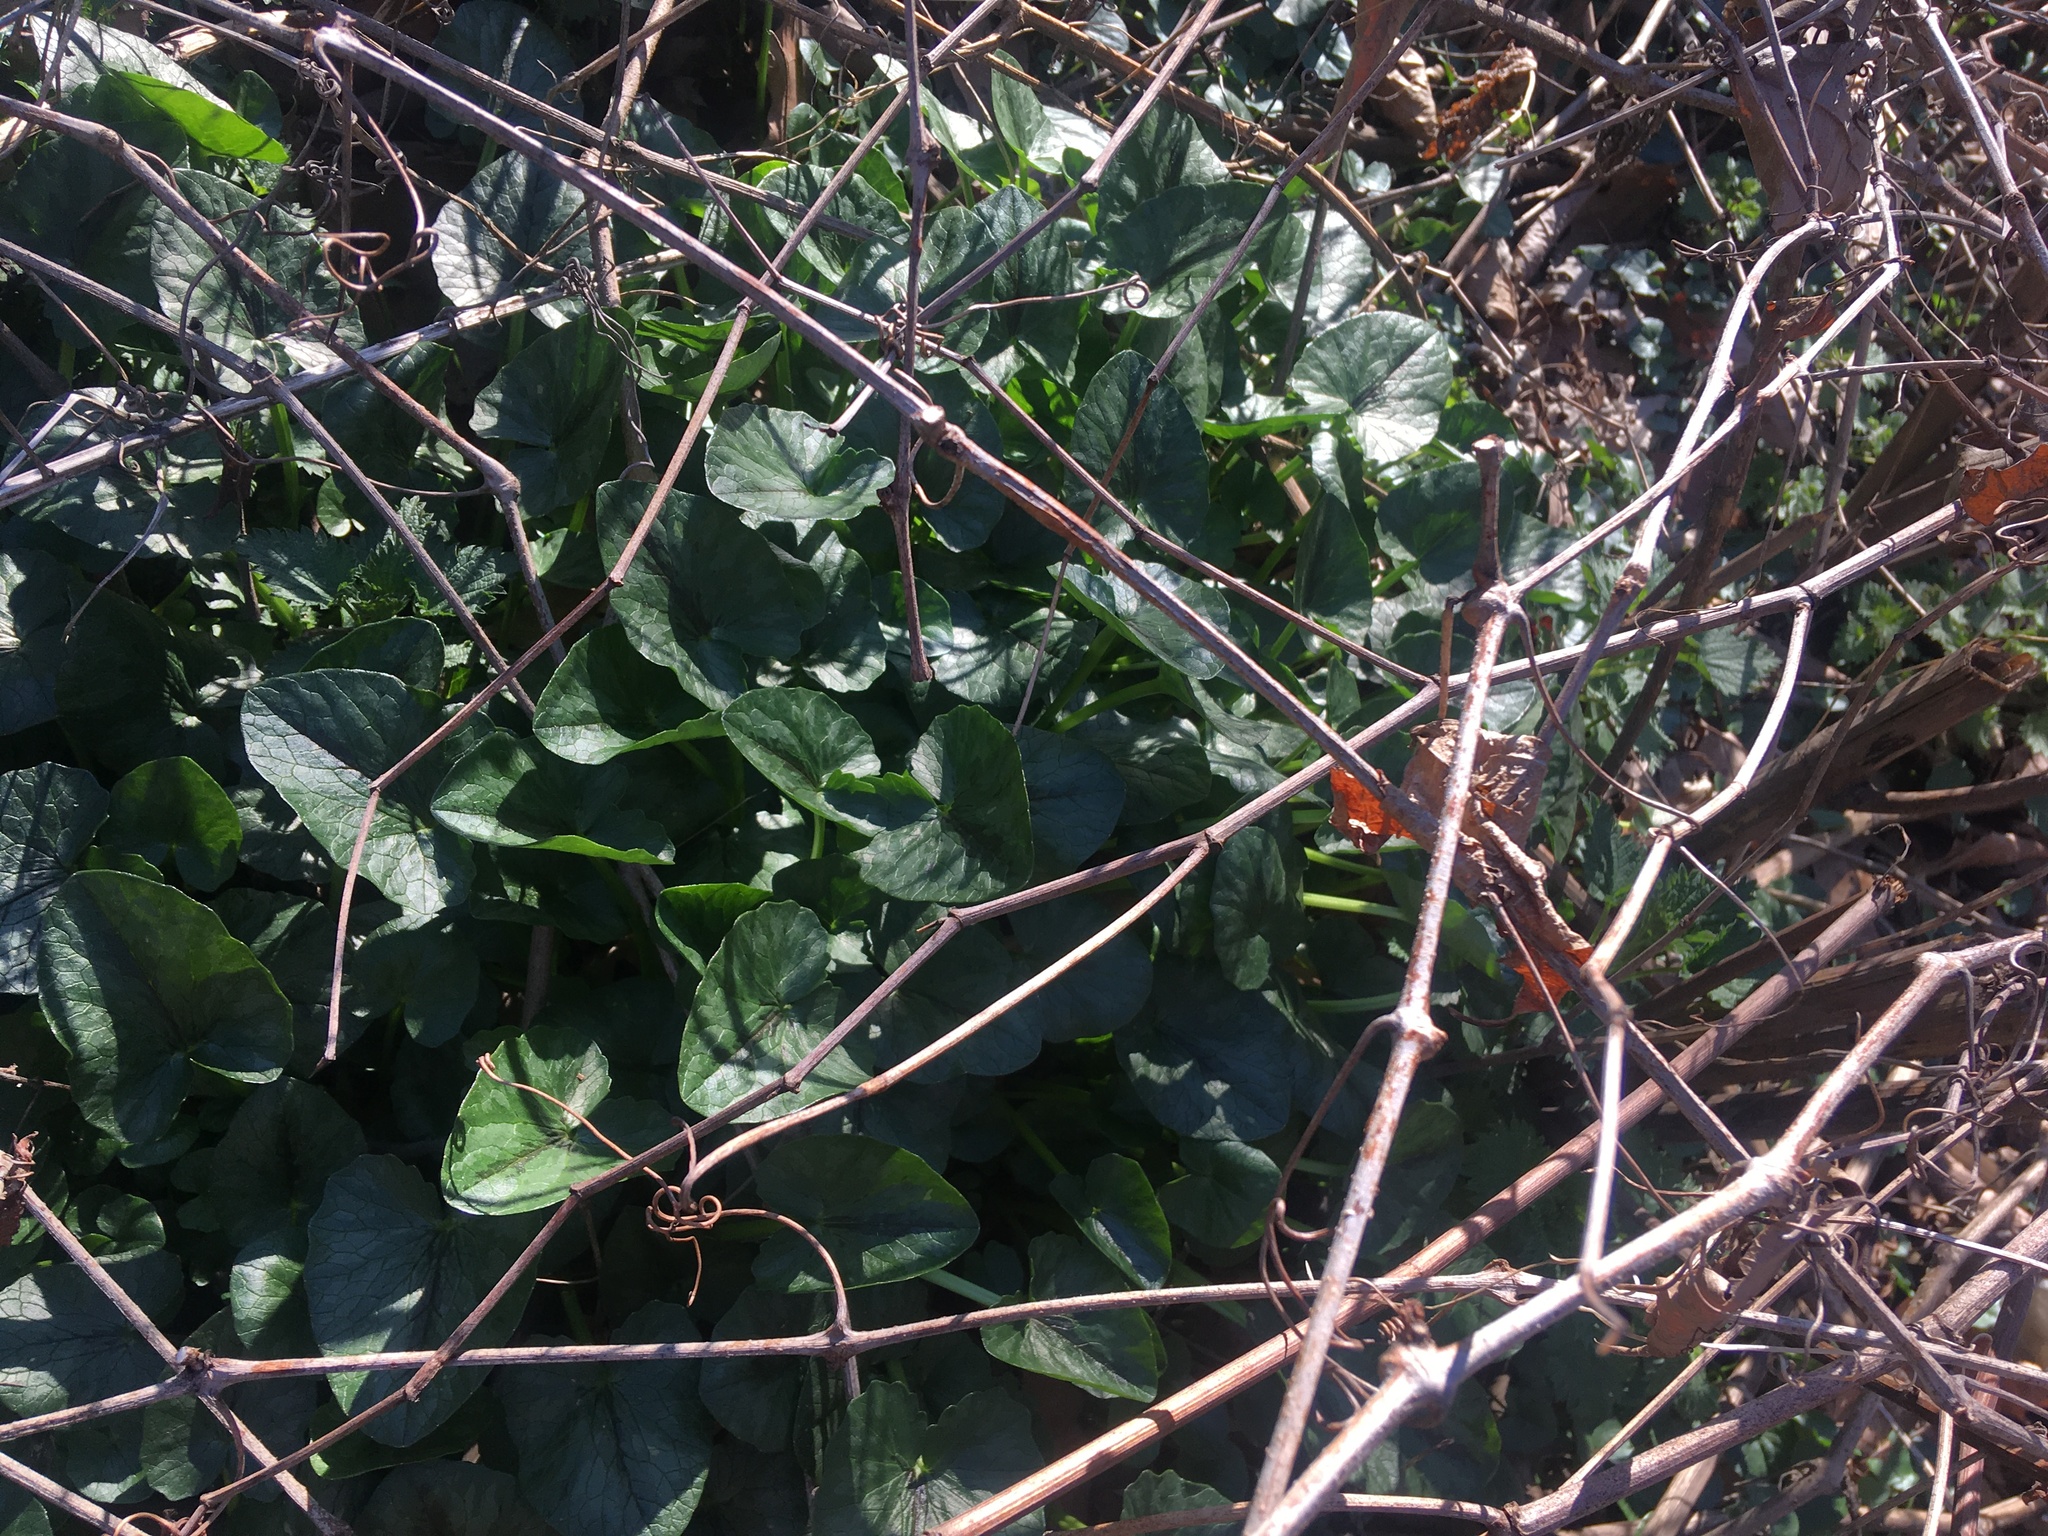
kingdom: Plantae
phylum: Tracheophyta
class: Magnoliopsida
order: Ranunculales
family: Ranunculaceae
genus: Ficaria
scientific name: Ficaria verna
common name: Lesser celandine
